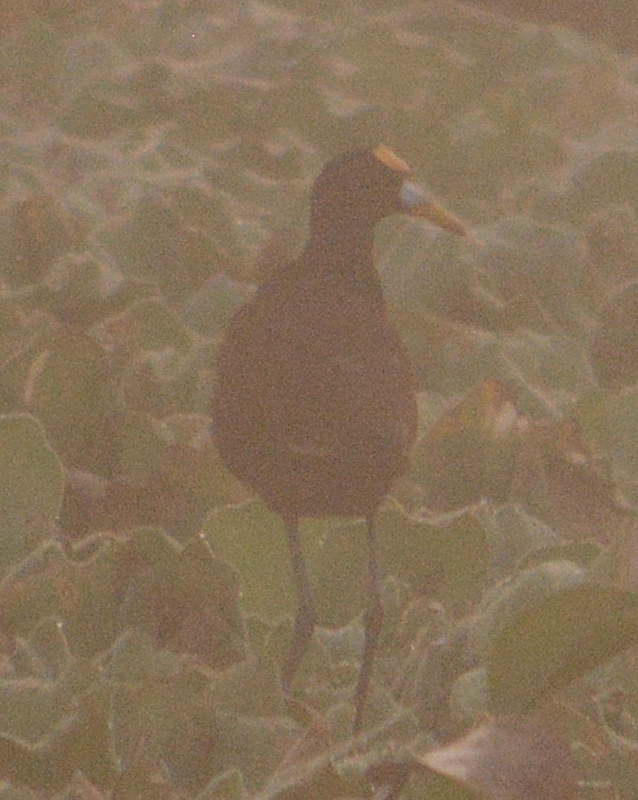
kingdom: Animalia
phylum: Chordata
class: Aves
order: Charadriiformes
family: Jacanidae
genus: Jacana
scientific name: Jacana spinosa
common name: Northern jacana
